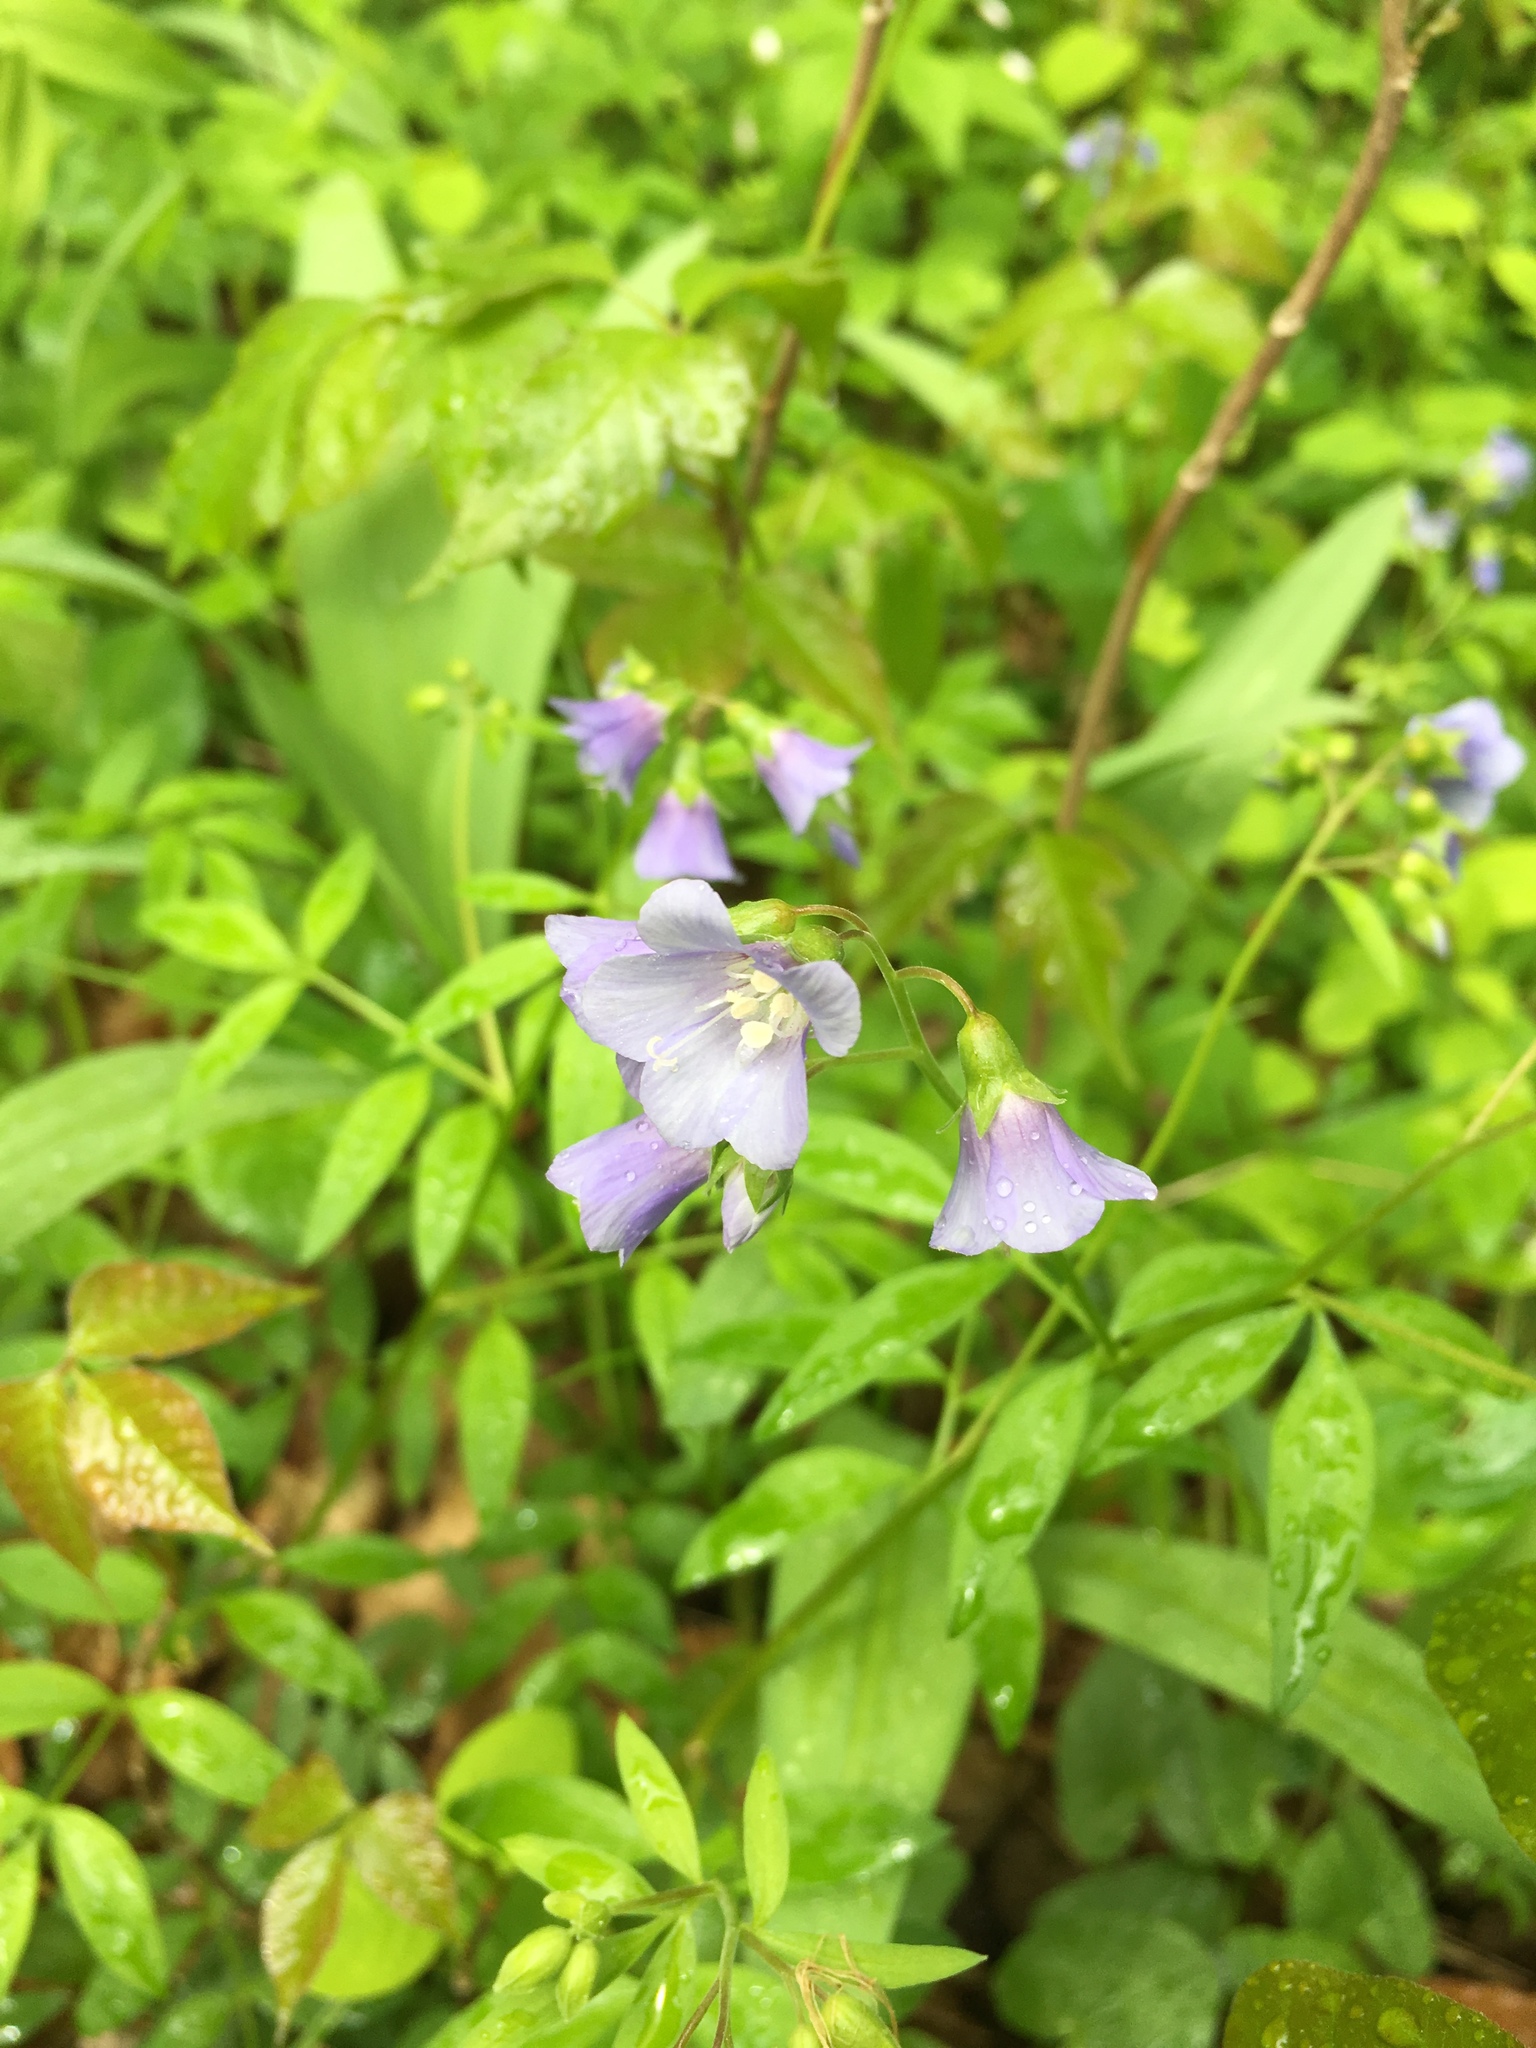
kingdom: Plantae
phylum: Tracheophyta
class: Magnoliopsida
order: Ericales
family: Polemoniaceae
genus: Polemonium
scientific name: Polemonium reptans
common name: Creeping jacob's-ladder
